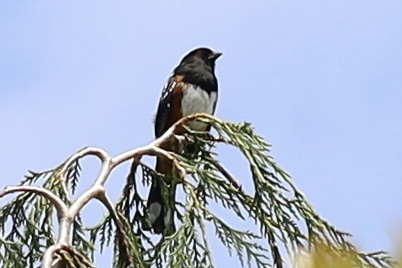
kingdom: Animalia
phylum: Chordata
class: Aves
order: Passeriformes
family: Passerellidae
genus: Pipilo
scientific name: Pipilo maculatus
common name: Spotted towhee
